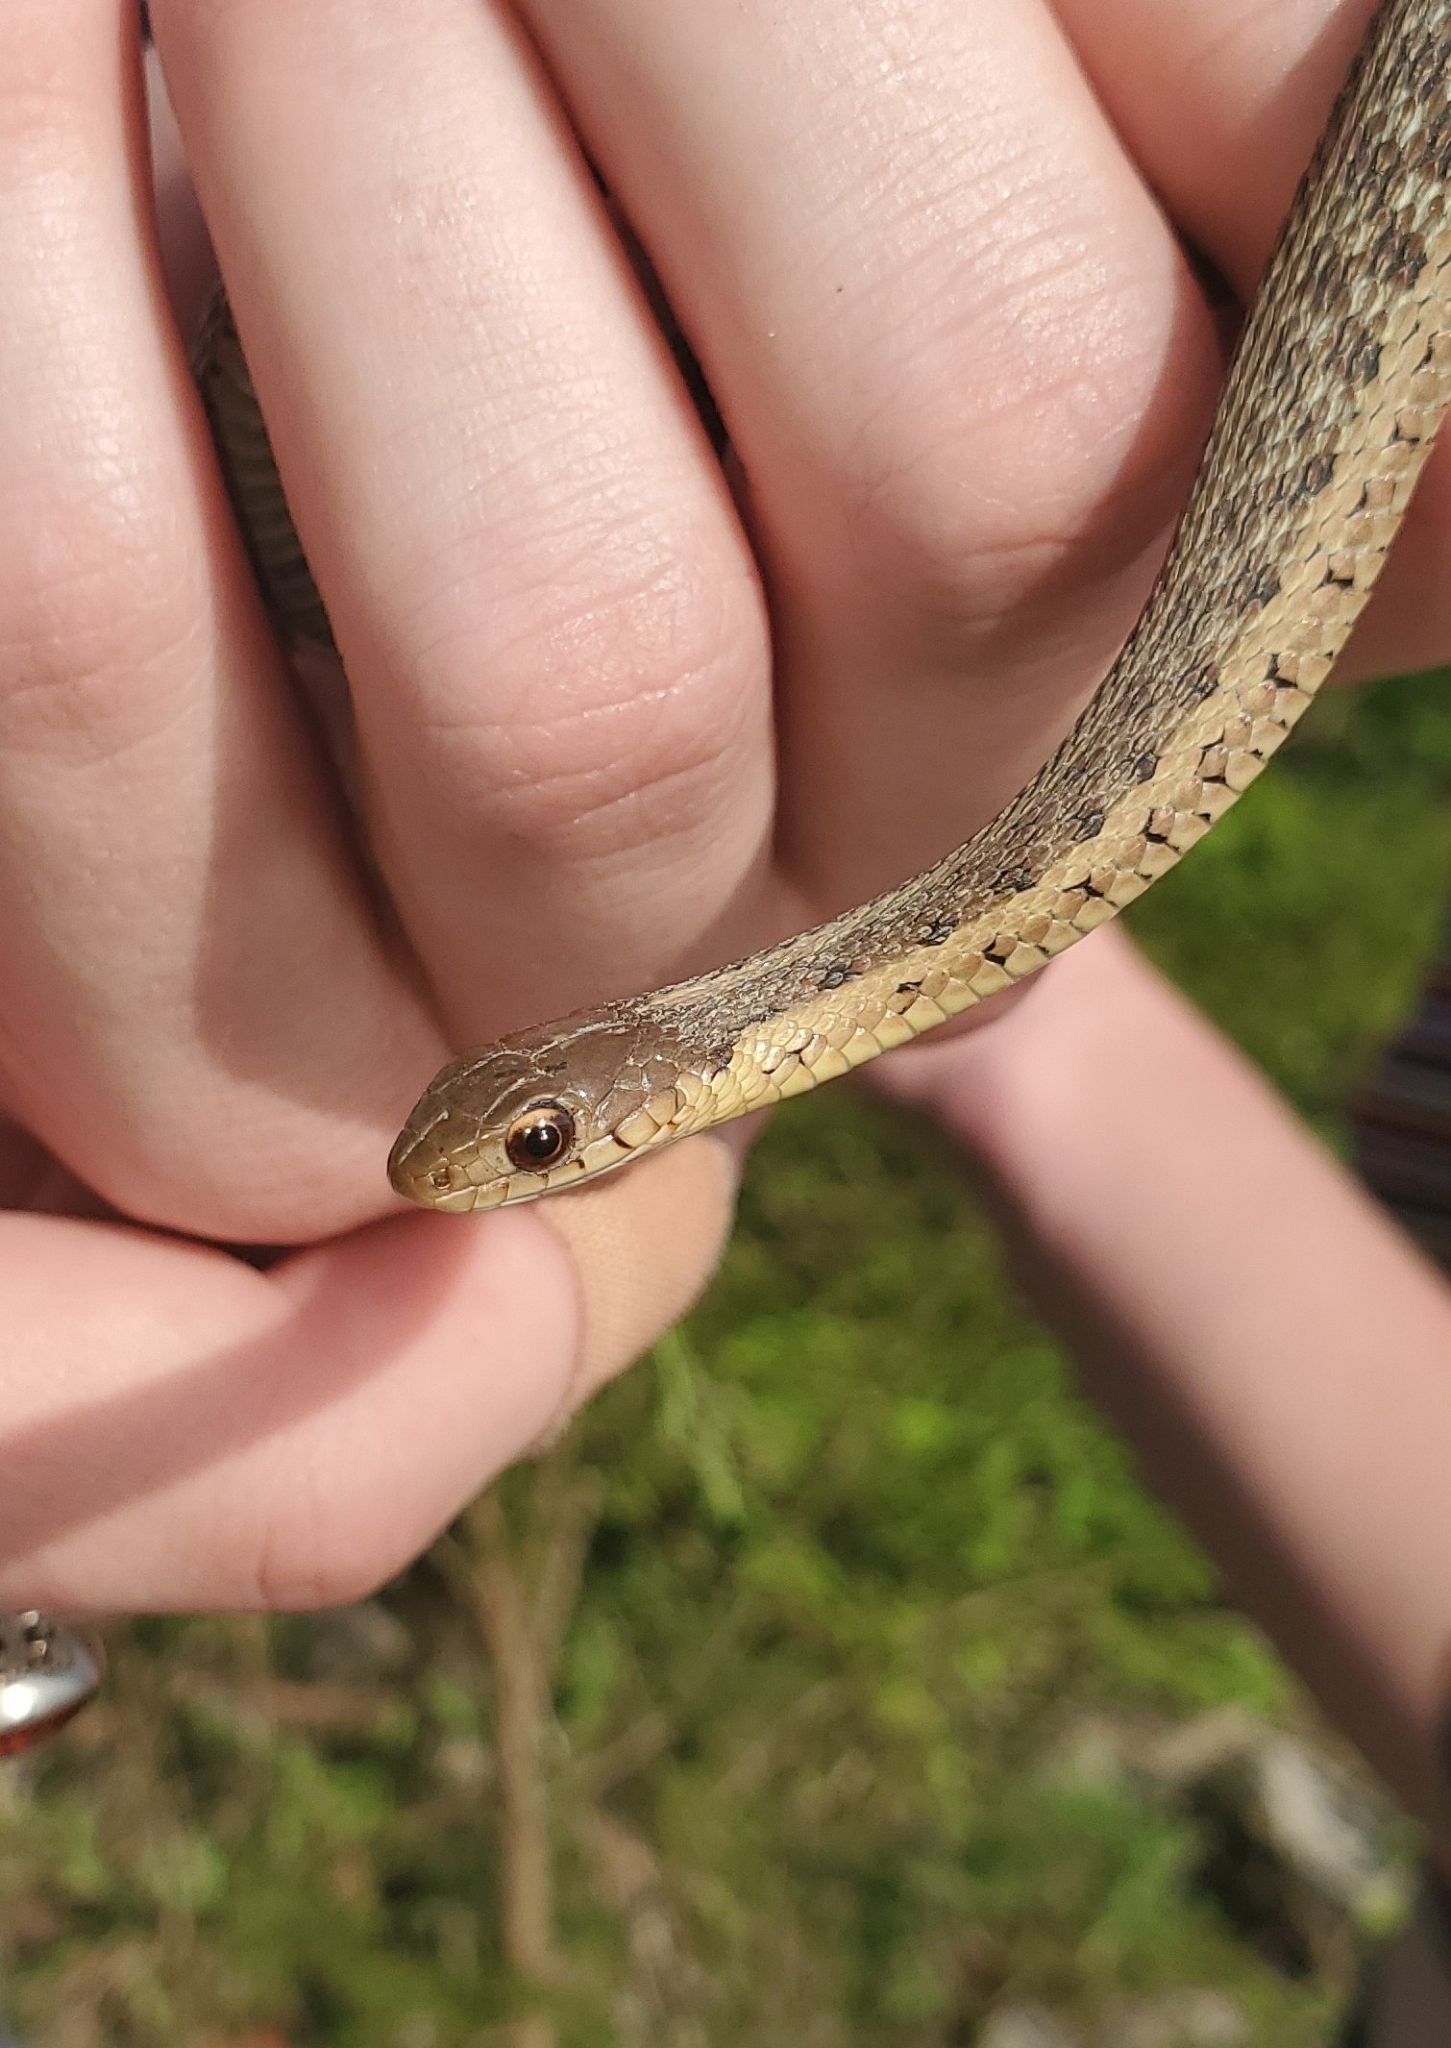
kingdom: Animalia
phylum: Chordata
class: Squamata
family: Colubridae
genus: Thamnophis
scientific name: Thamnophis sirtalis
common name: Common garter snake
